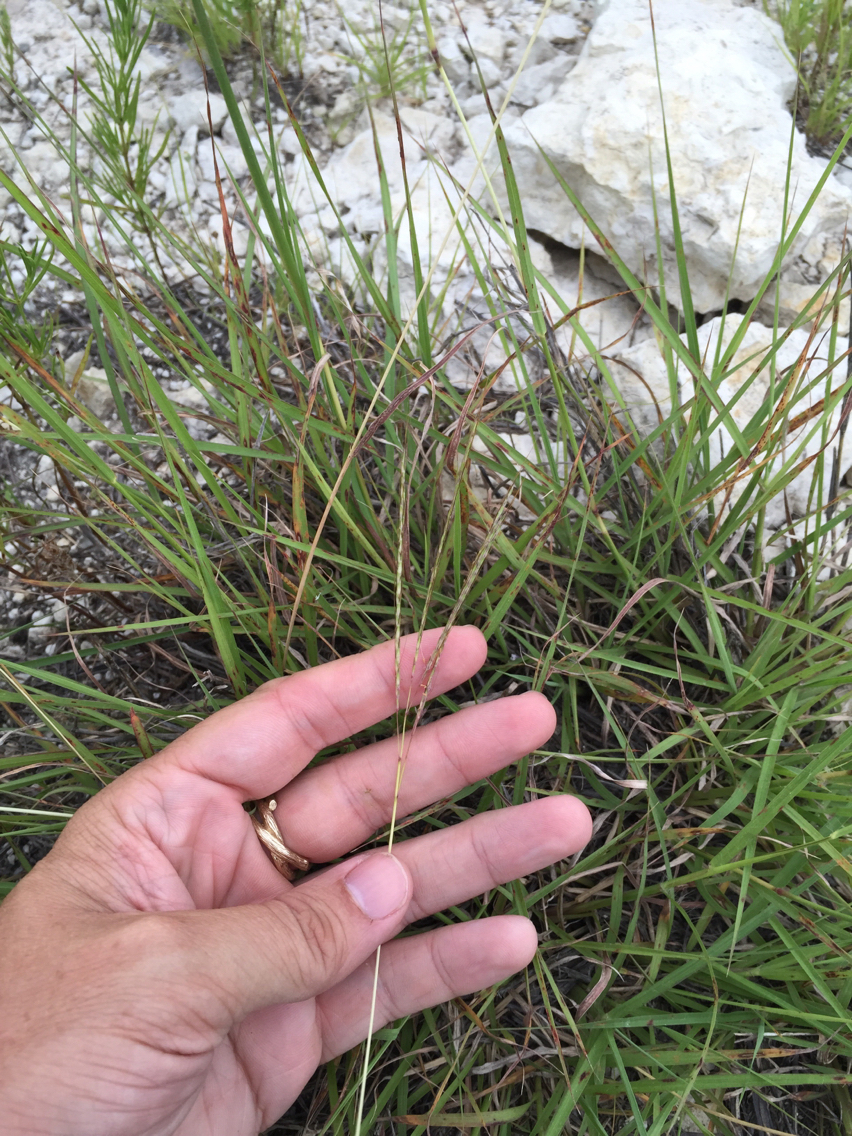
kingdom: Plantae
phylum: Tracheophyta
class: Liliopsida
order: Poales
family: Poaceae
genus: Bothriochloa
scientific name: Bothriochloa ischaemum
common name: Yellow bluestem
